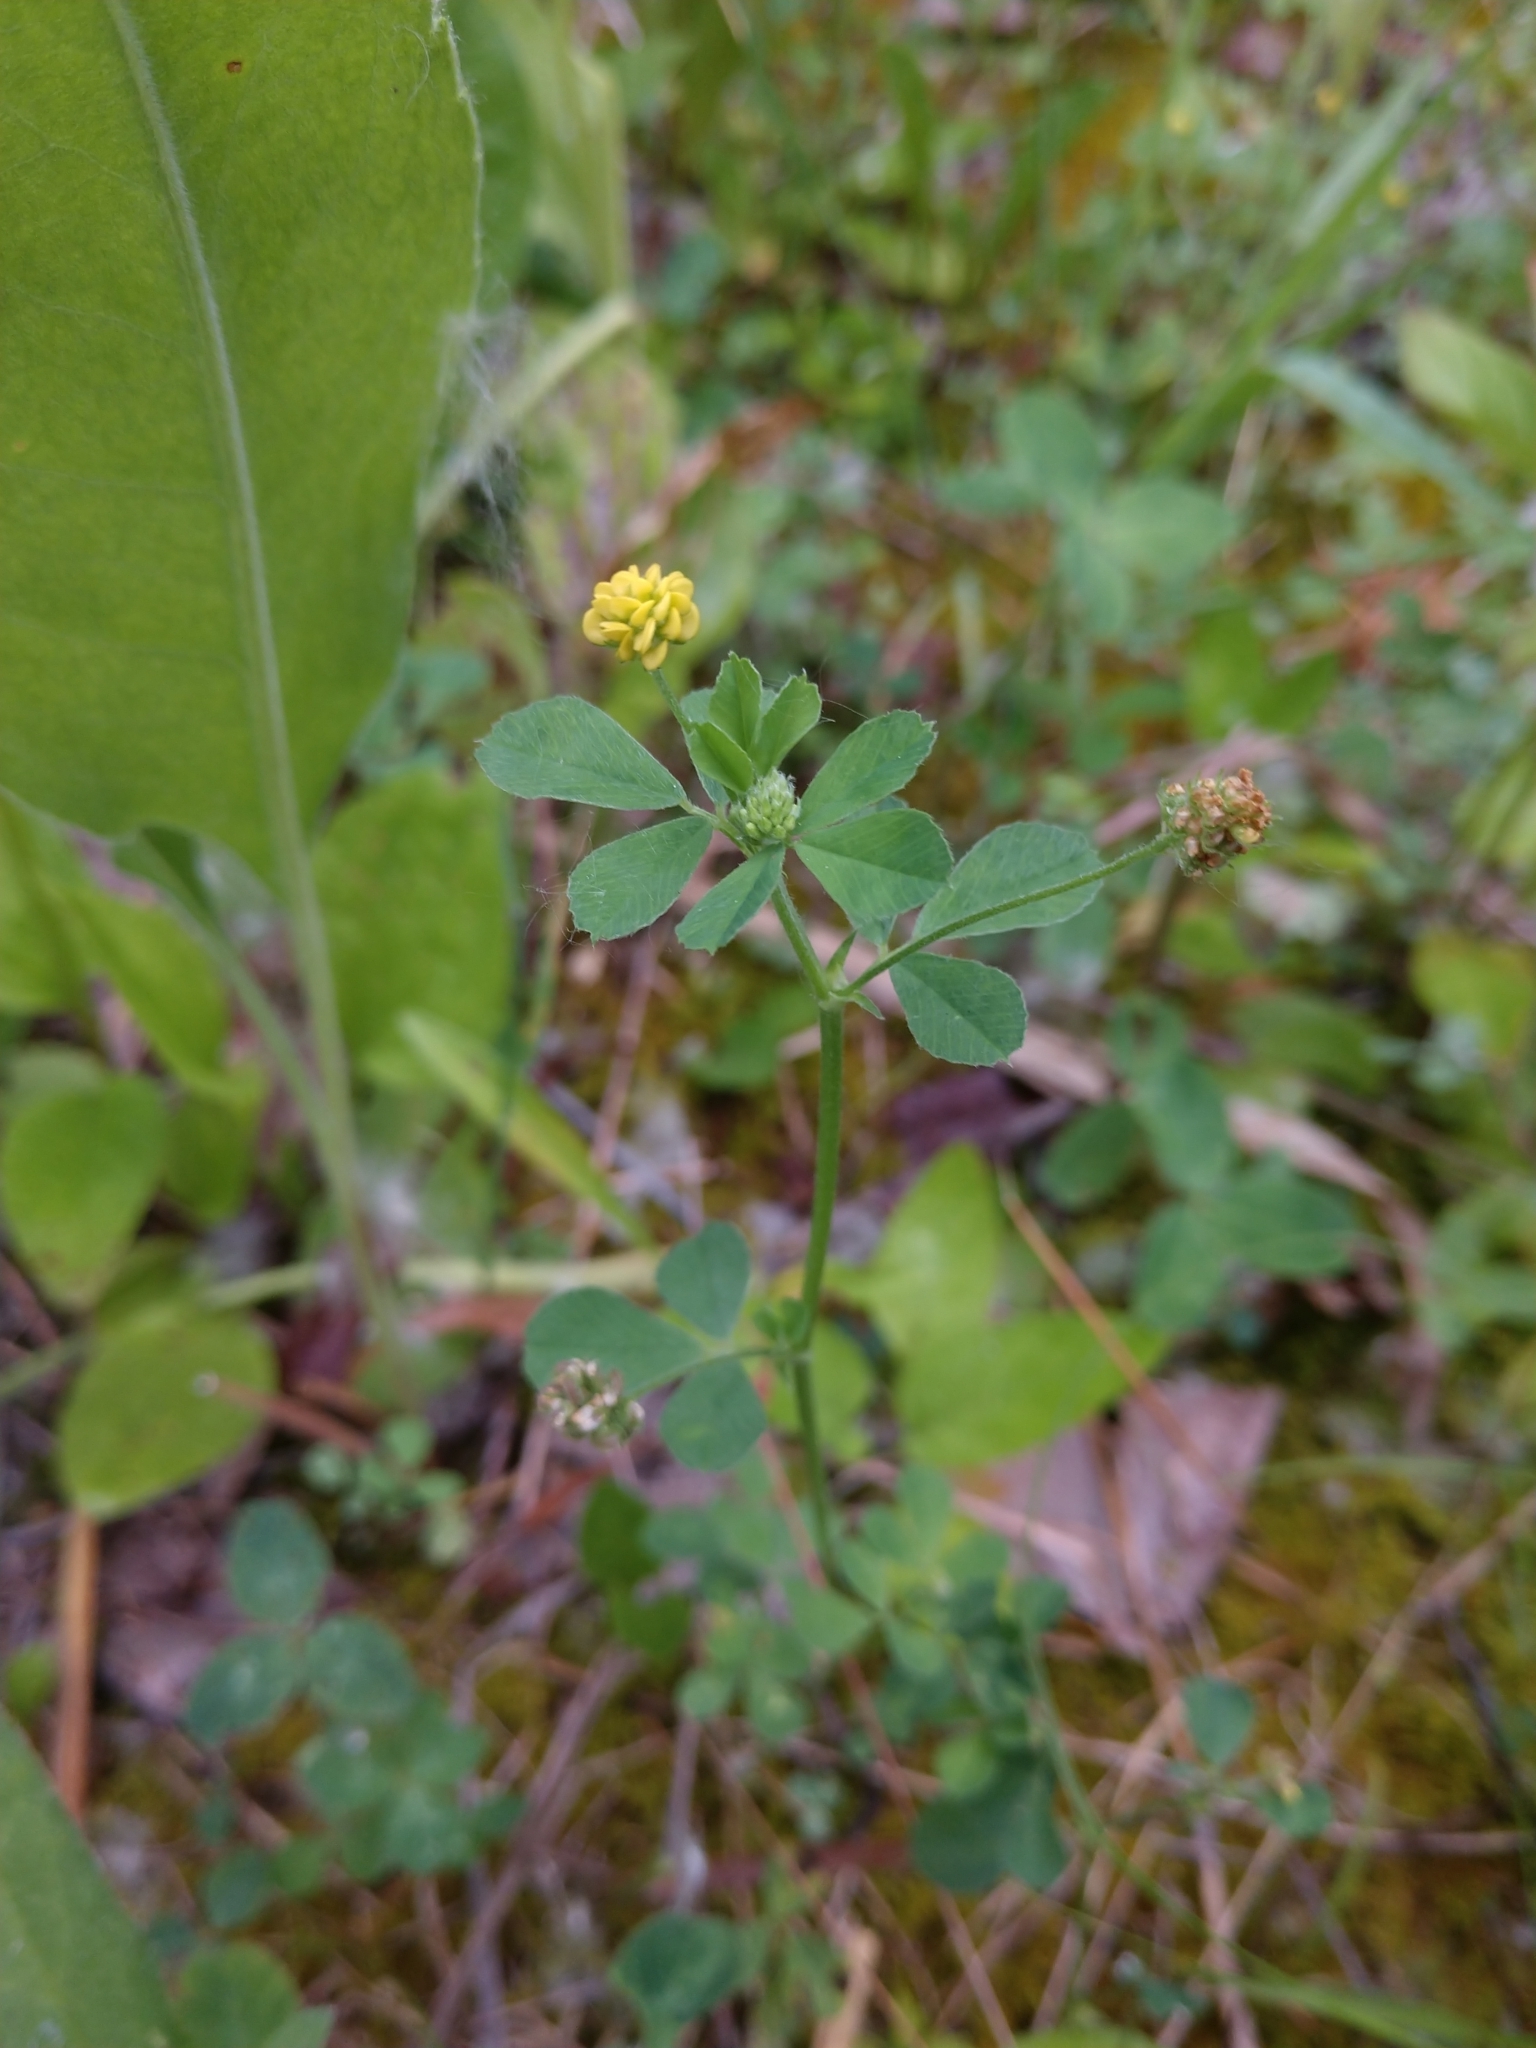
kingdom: Plantae
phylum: Tracheophyta
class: Magnoliopsida
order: Fabales
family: Fabaceae
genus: Medicago
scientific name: Medicago lupulina
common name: Black medick
